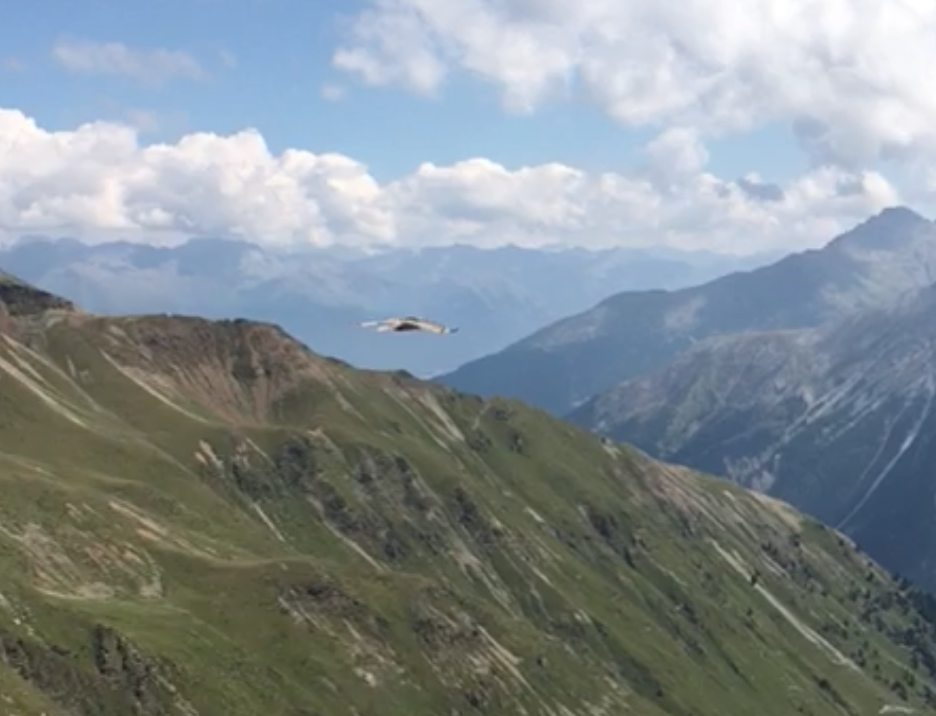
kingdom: Animalia
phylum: Chordata
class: Aves
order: Accipitriformes
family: Accipitridae
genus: Gypaetus
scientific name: Gypaetus barbatus
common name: Bearded vulture
